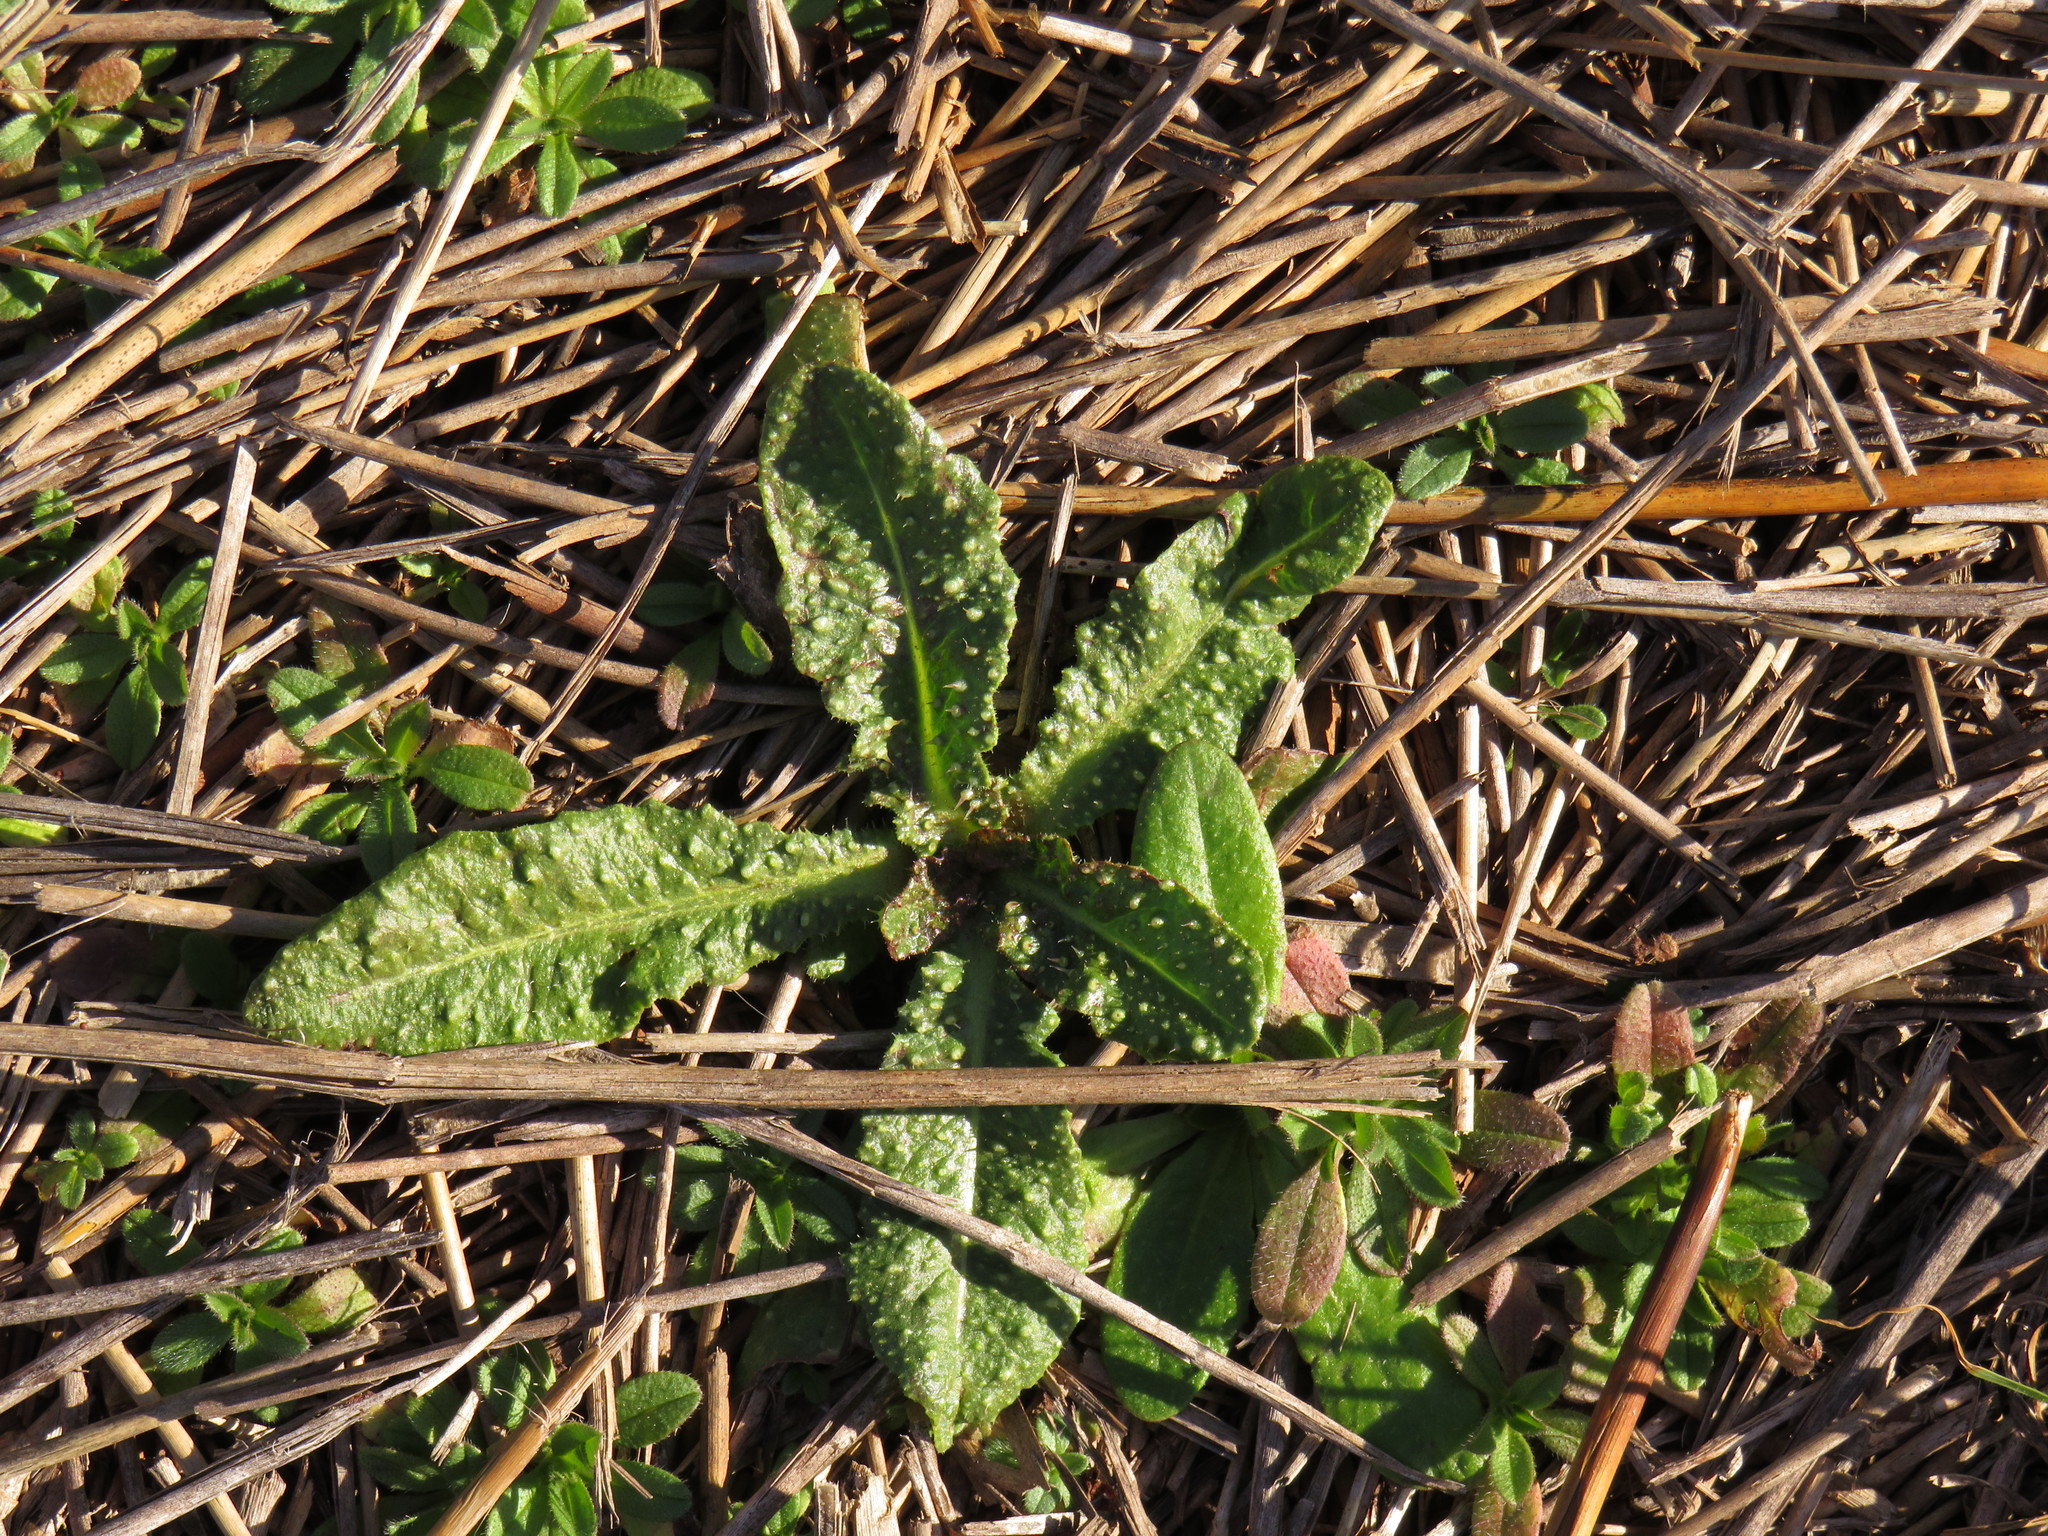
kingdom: Plantae
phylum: Tracheophyta
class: Magnoliopsida
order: Asterales
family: Asteraceae
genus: Helminthotheca
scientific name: Helminthotheca echioides
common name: Ox-tongue
